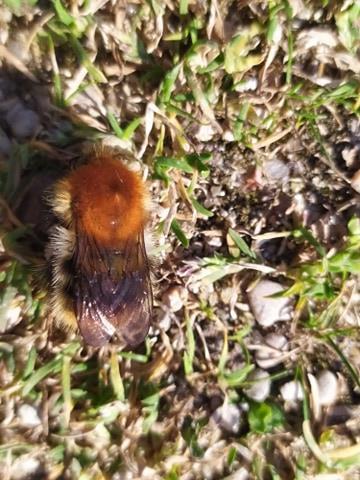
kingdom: Animalia
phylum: Arthropoda
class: Insecta
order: Hymenoptera
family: Apidae
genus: Bombus
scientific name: Bombus pascuorum
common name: Common carder bee
